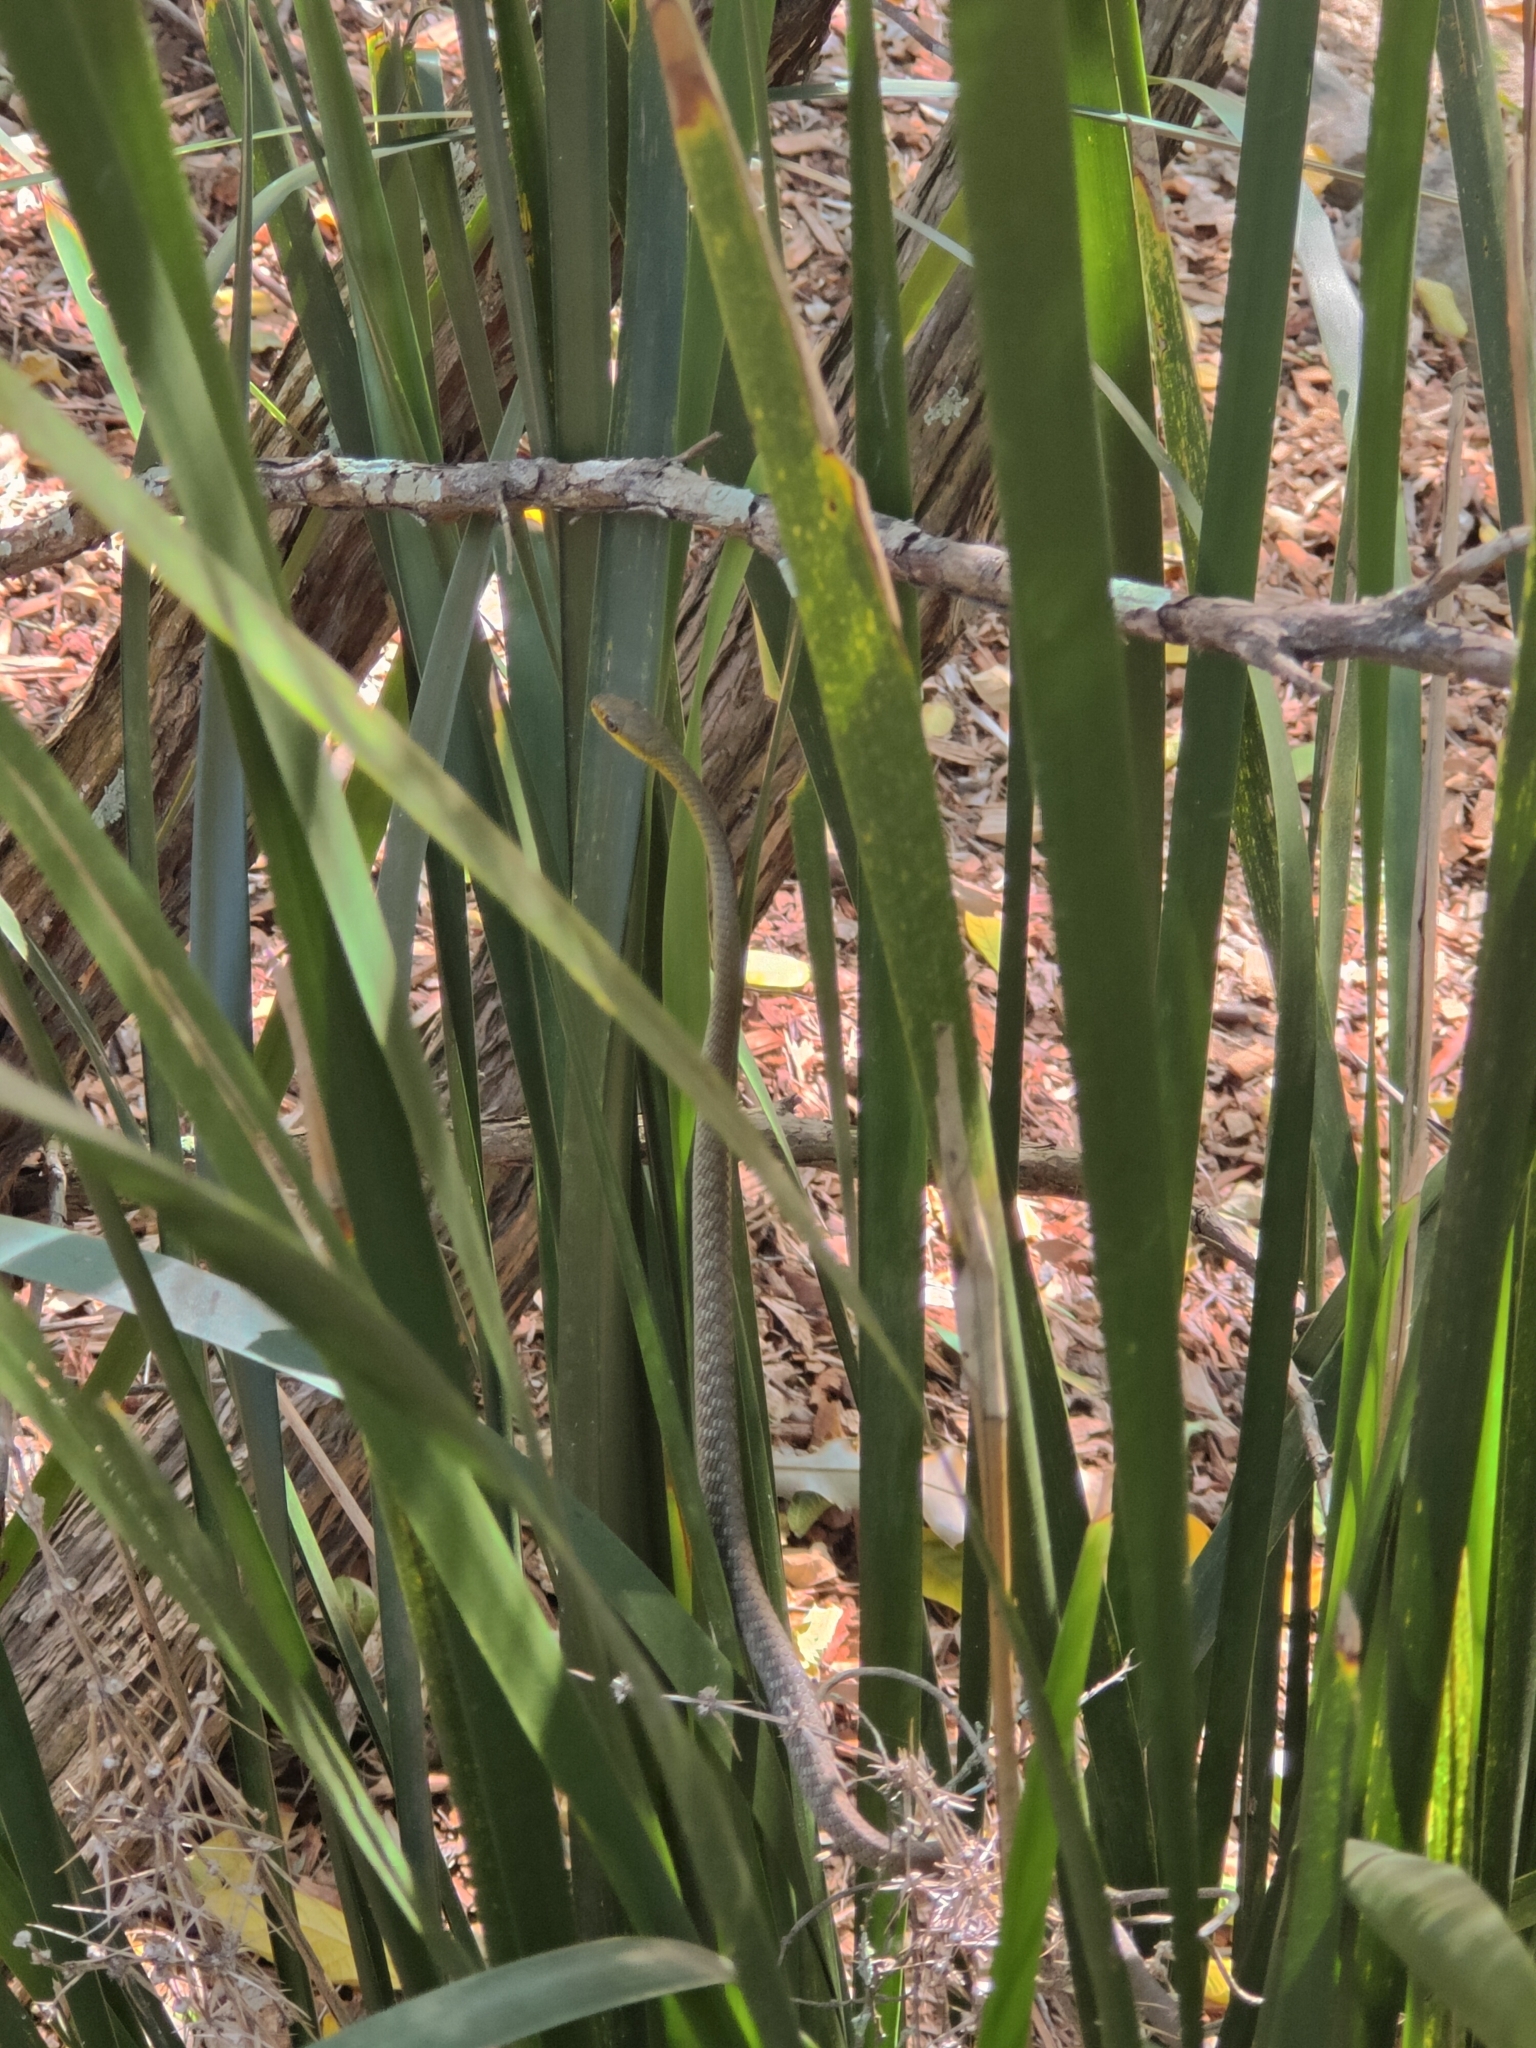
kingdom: Animalia
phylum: Chordata
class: Squamata
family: Colubridae
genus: Dendrelaphis
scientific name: Dendrelaphis punctulatus
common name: Common tree snake
